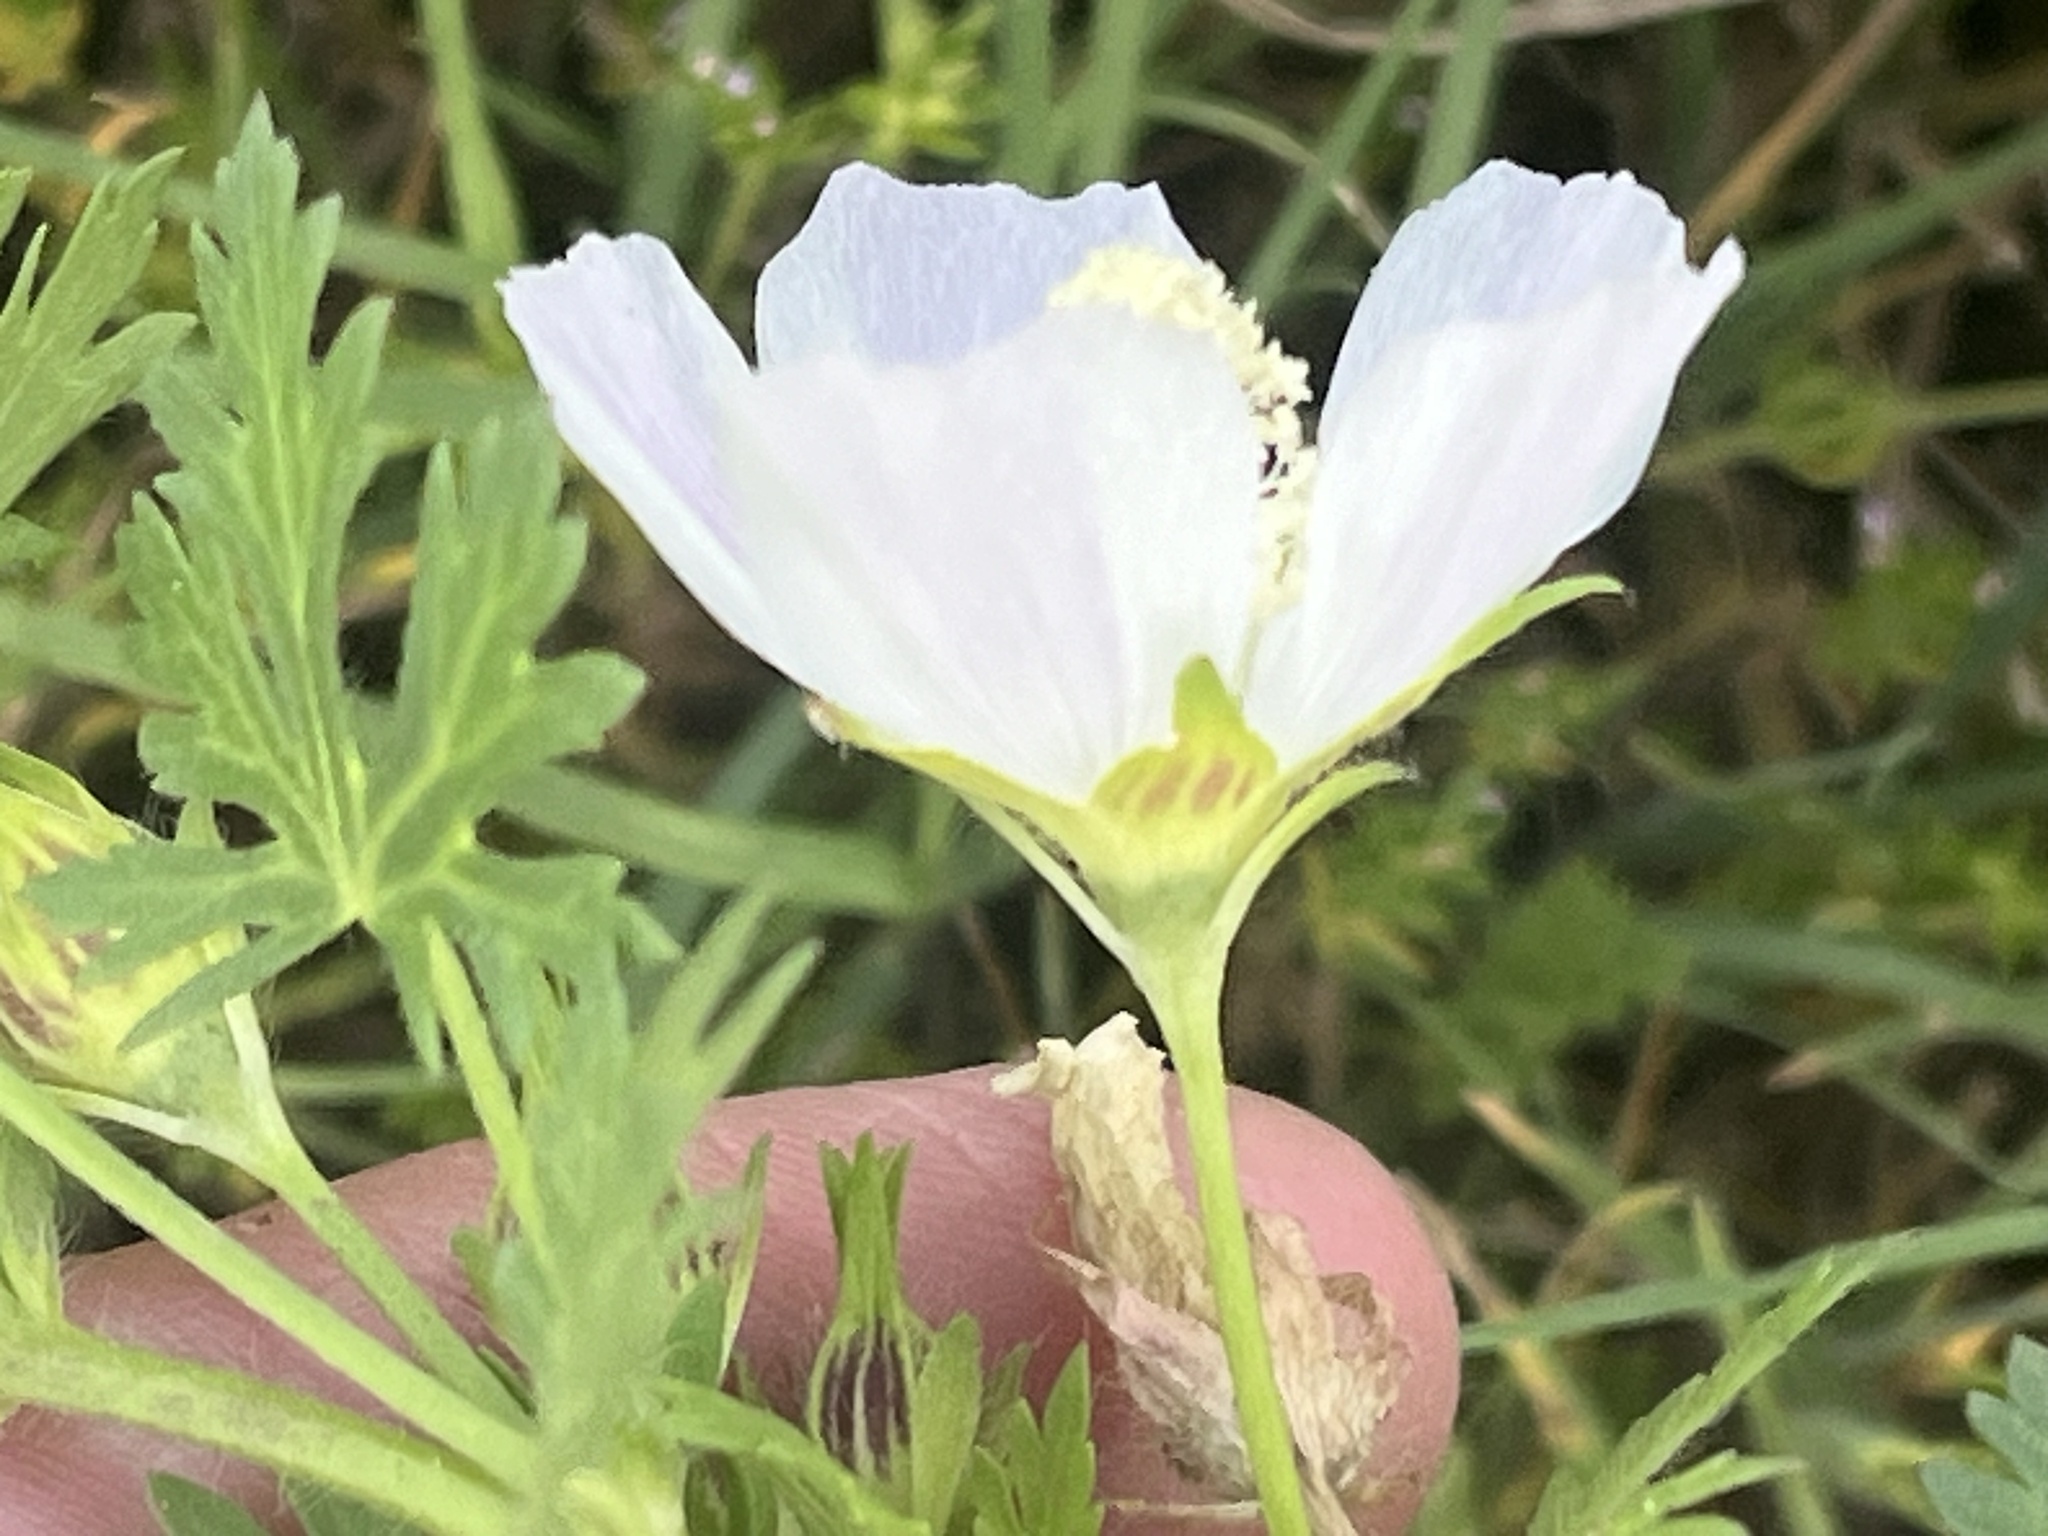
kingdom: Plantae
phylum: Tracheophyta
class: Magnoliopsida
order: Malvales
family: Malvaceae
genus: Callirhoe
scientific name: Callirhoe involucrata
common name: Purple poppy-mallow
